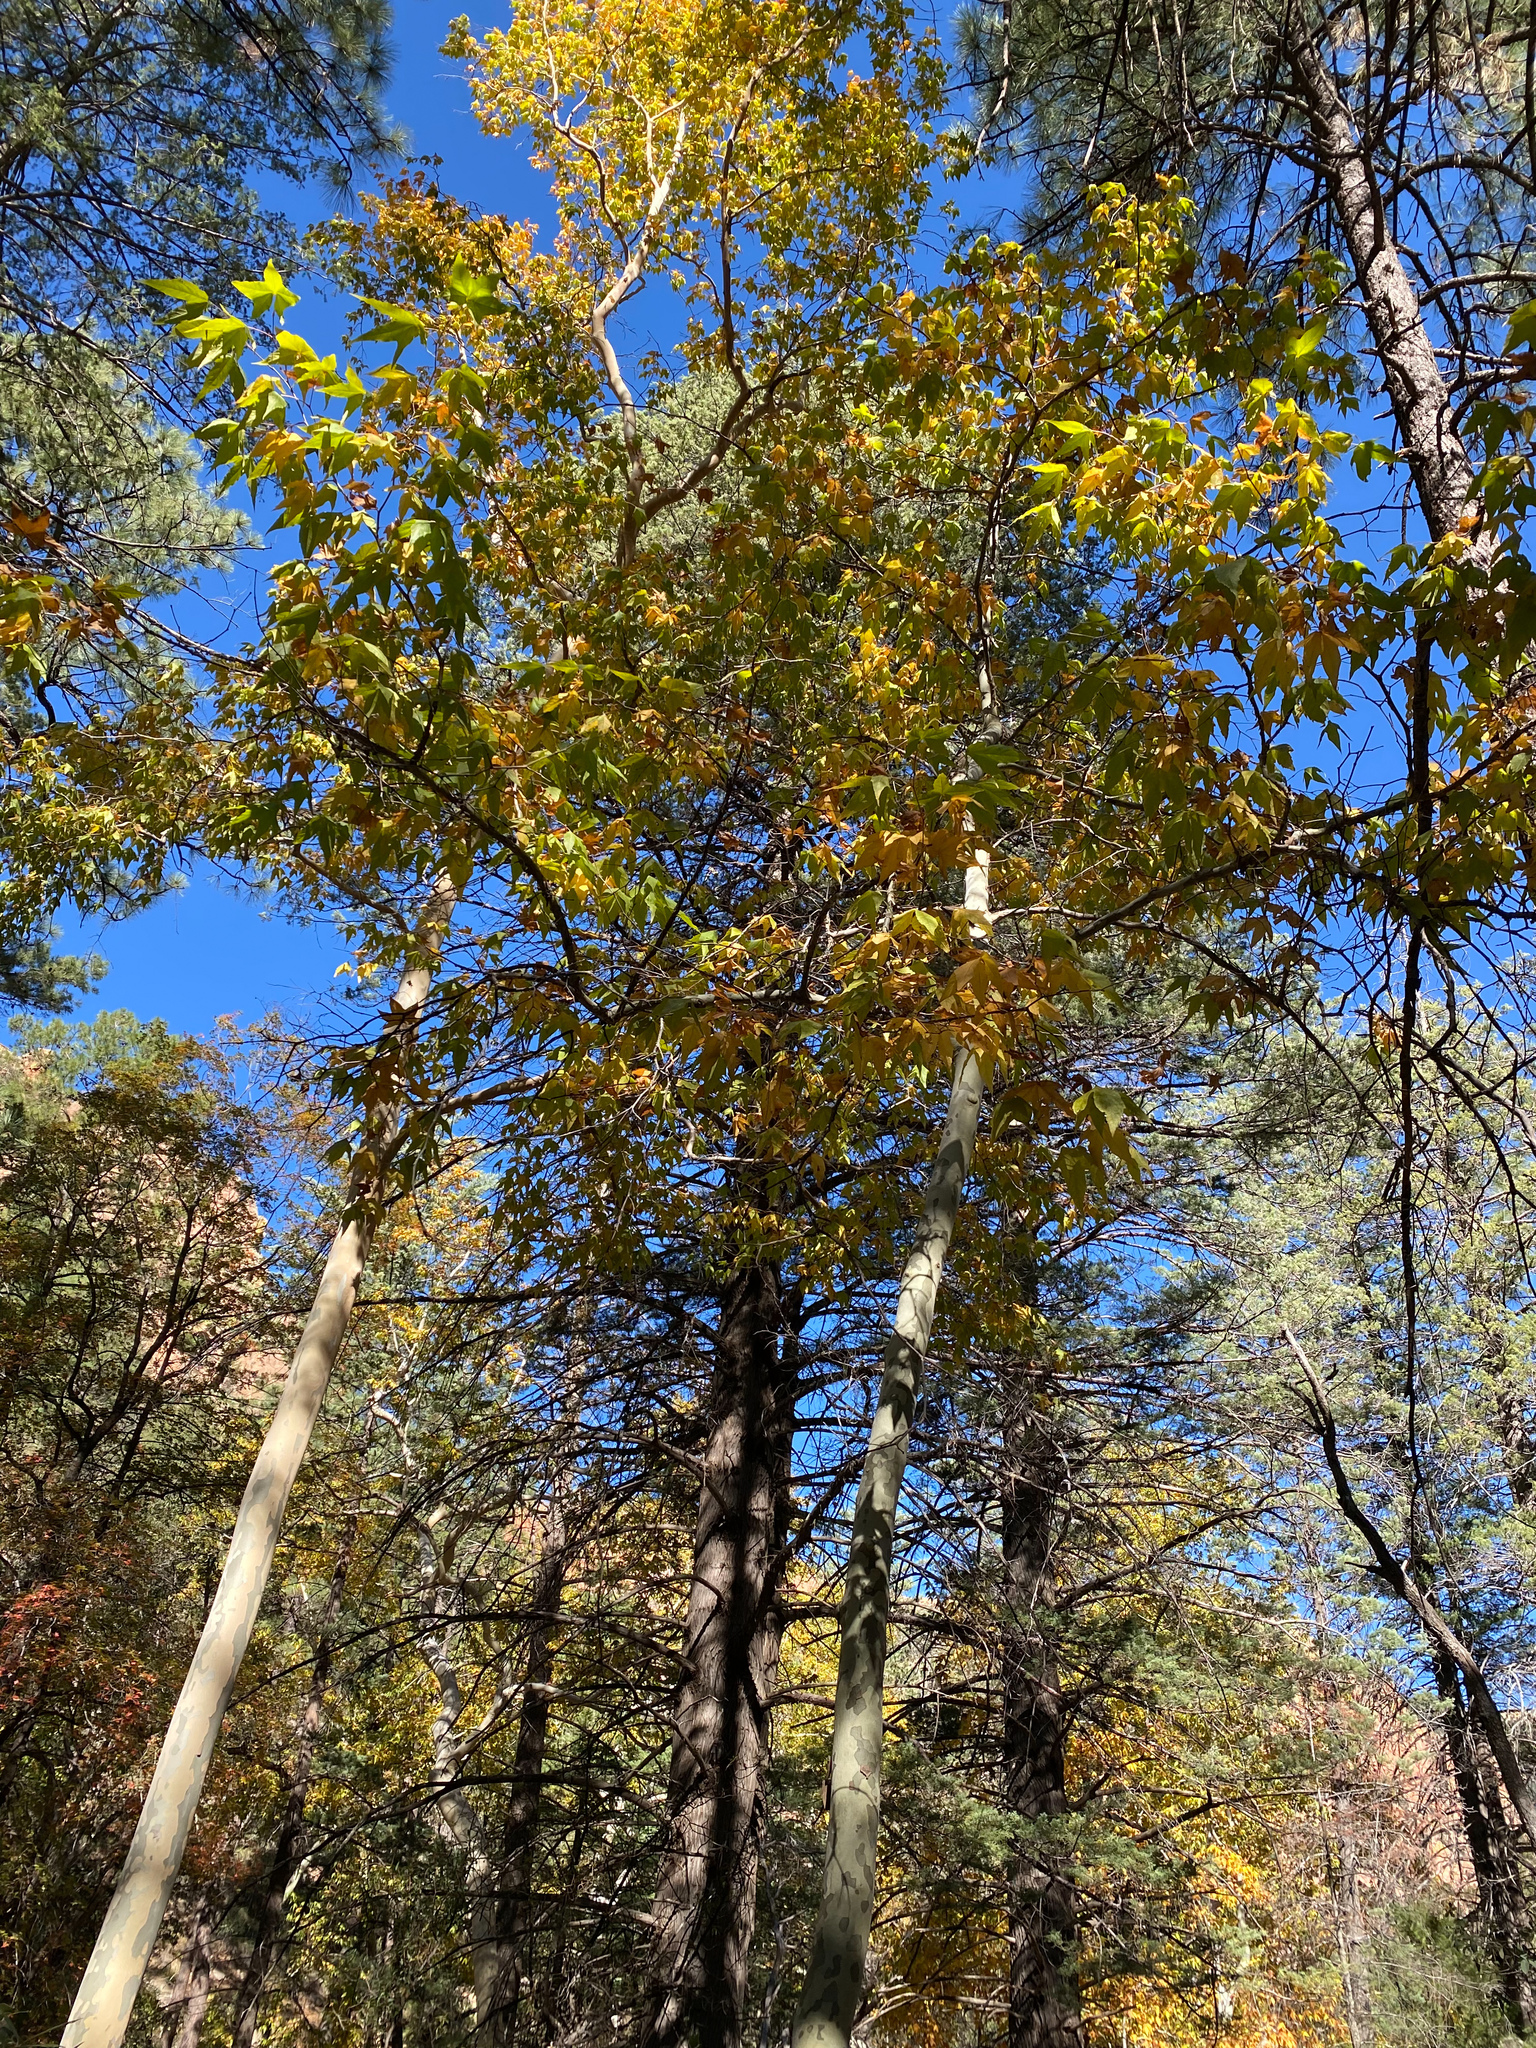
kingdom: Plantae
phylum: Tracheophyta
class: Magnoliopsida
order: Proteales
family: Platanaceae
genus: Platanus
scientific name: Platanus wrightii
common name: Arizona sycamore
